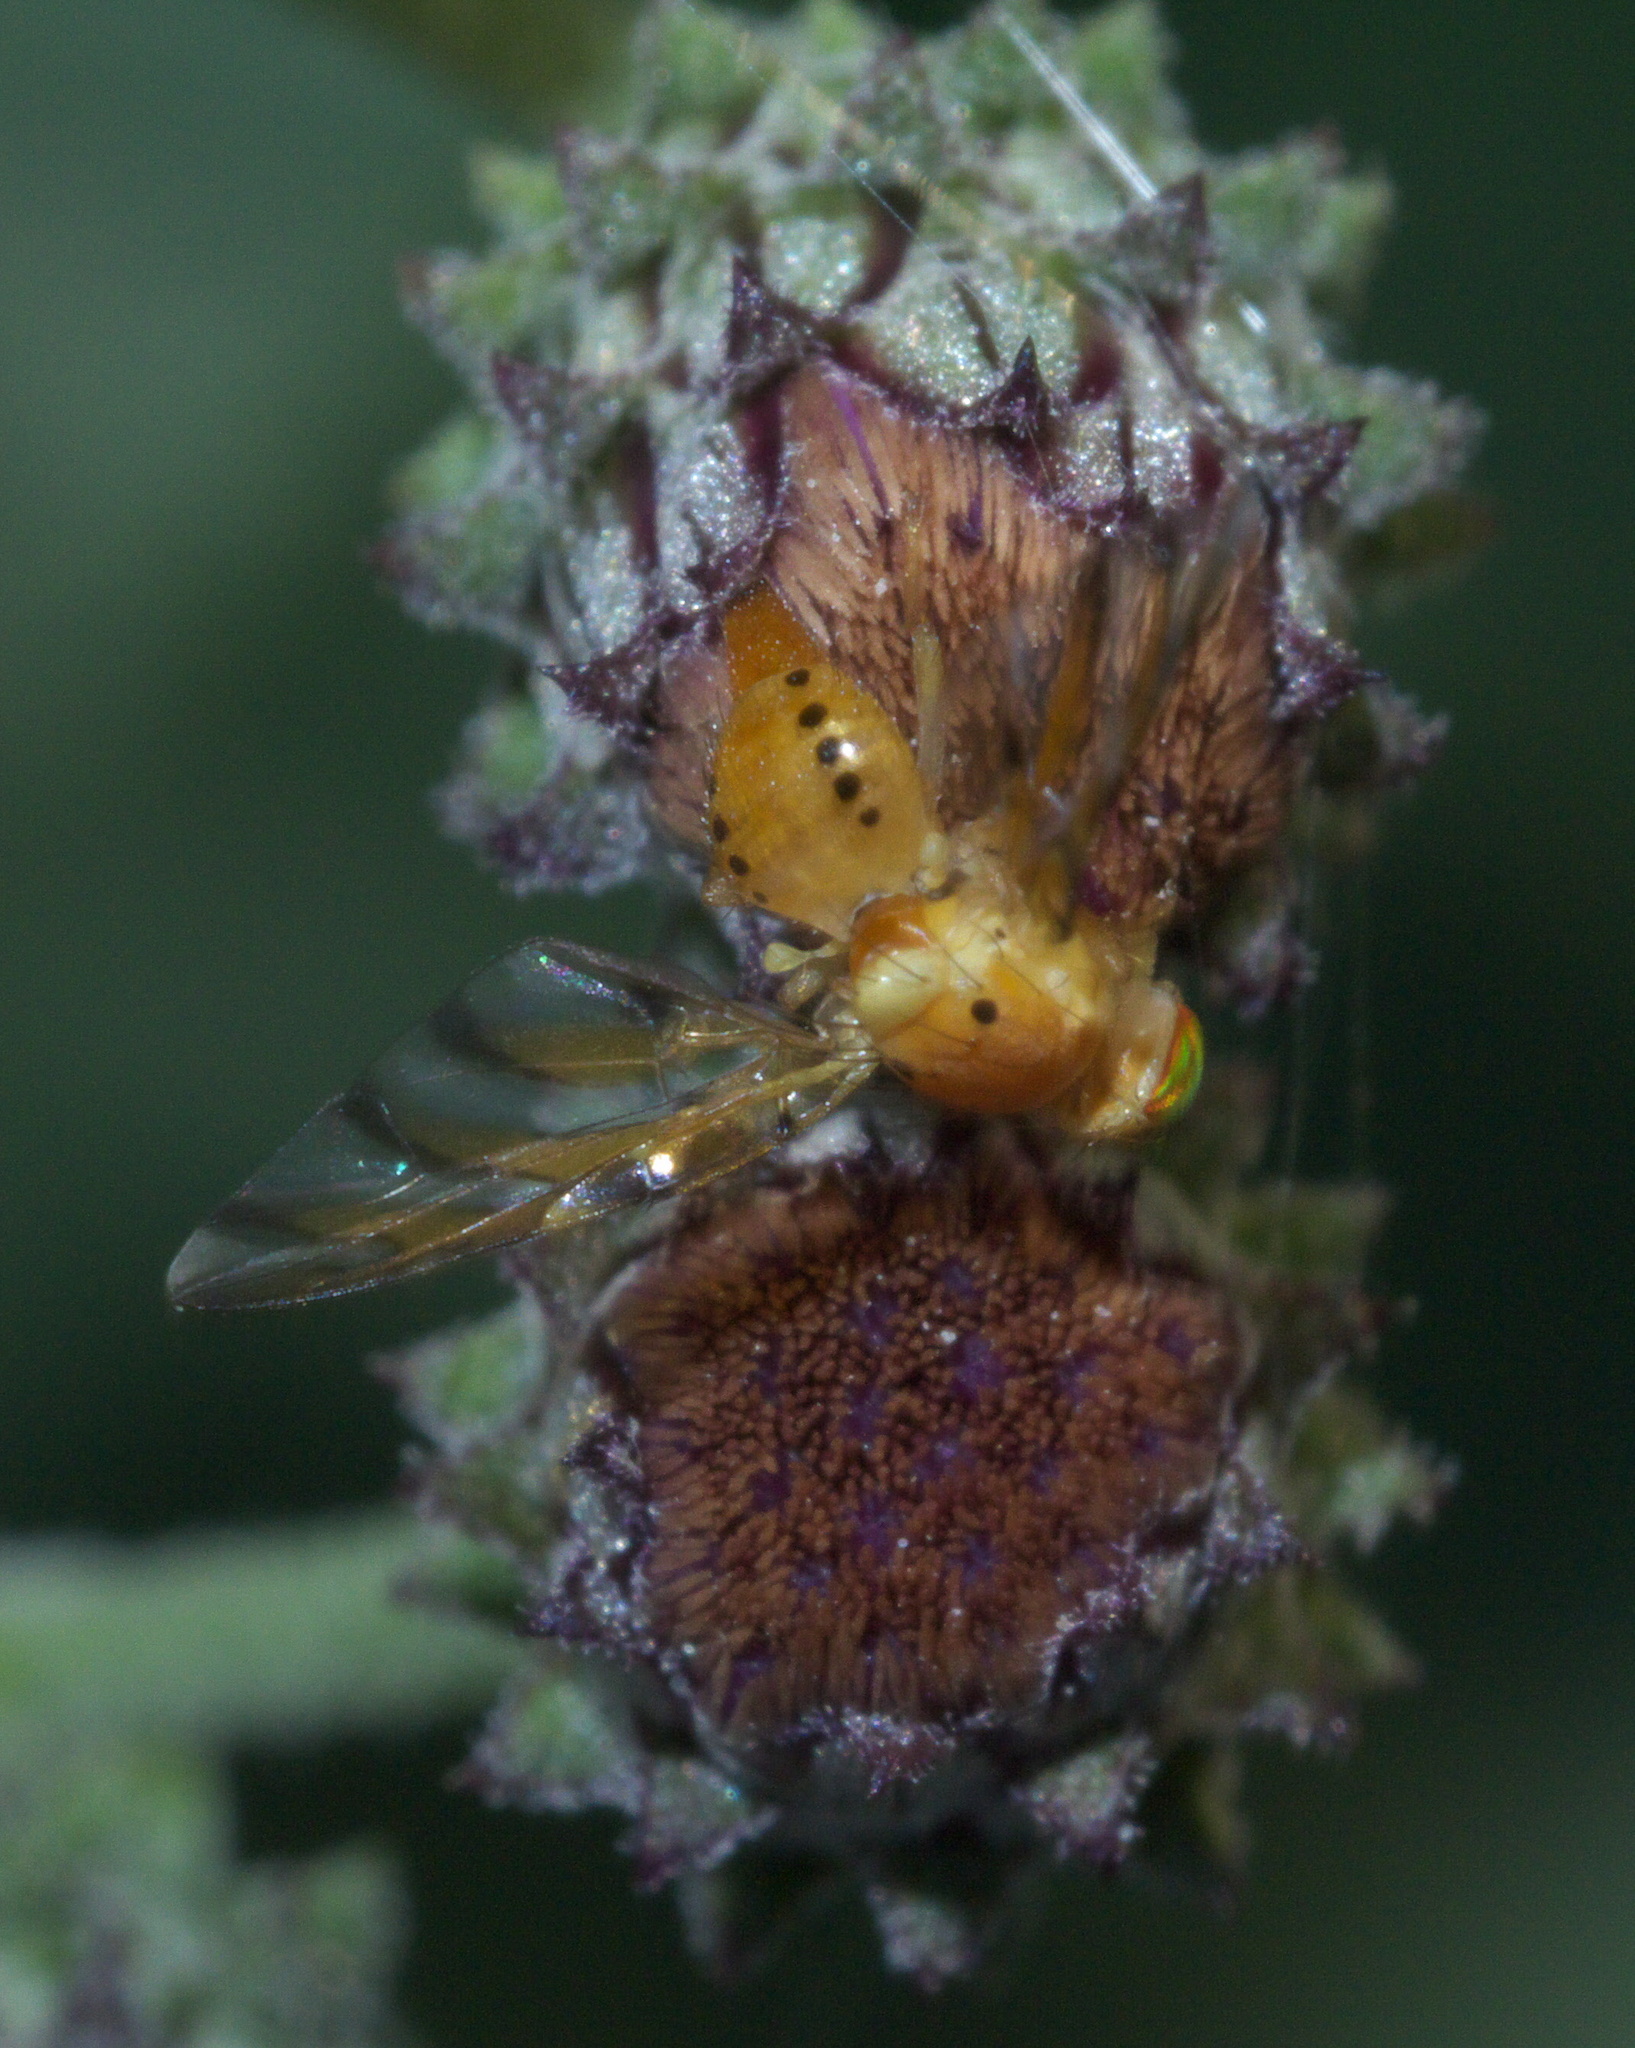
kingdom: Animalia
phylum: Arthropoda
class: Insecta
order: Diptera
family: Tephritidae
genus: Tomoplagia
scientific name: Tomoplagia obliqua
